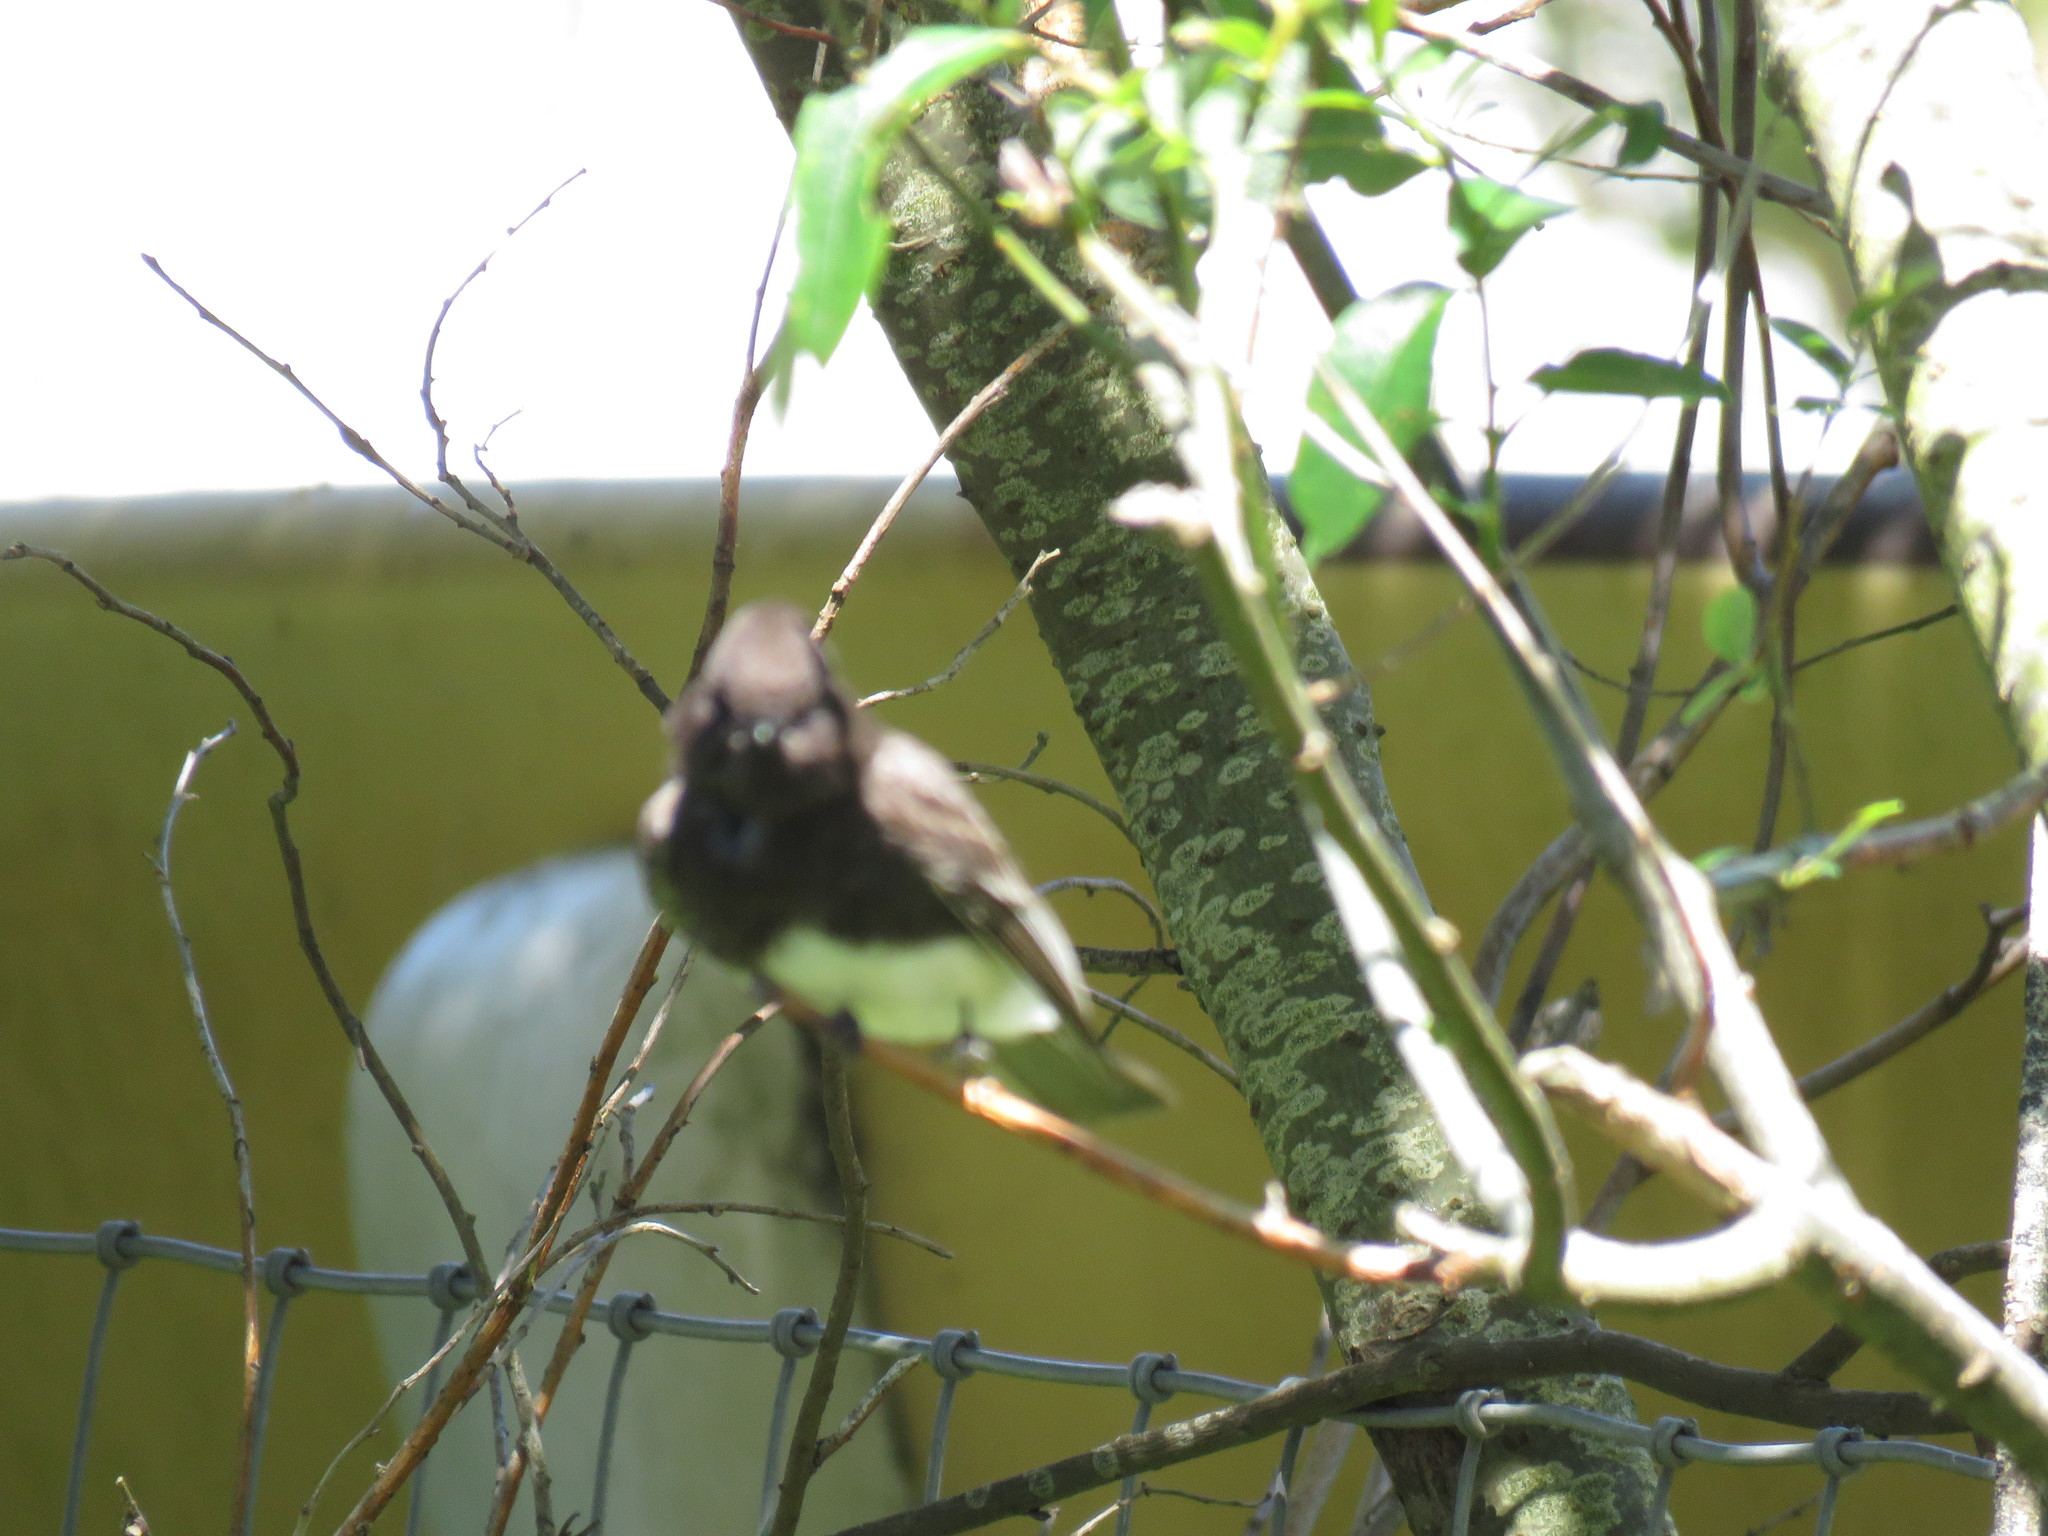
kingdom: Animalia
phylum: Chordata
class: Aves
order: Passeriformes
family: Tyrannidae
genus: Sayornis
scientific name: Sayornis nigricans
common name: Black phoebe
